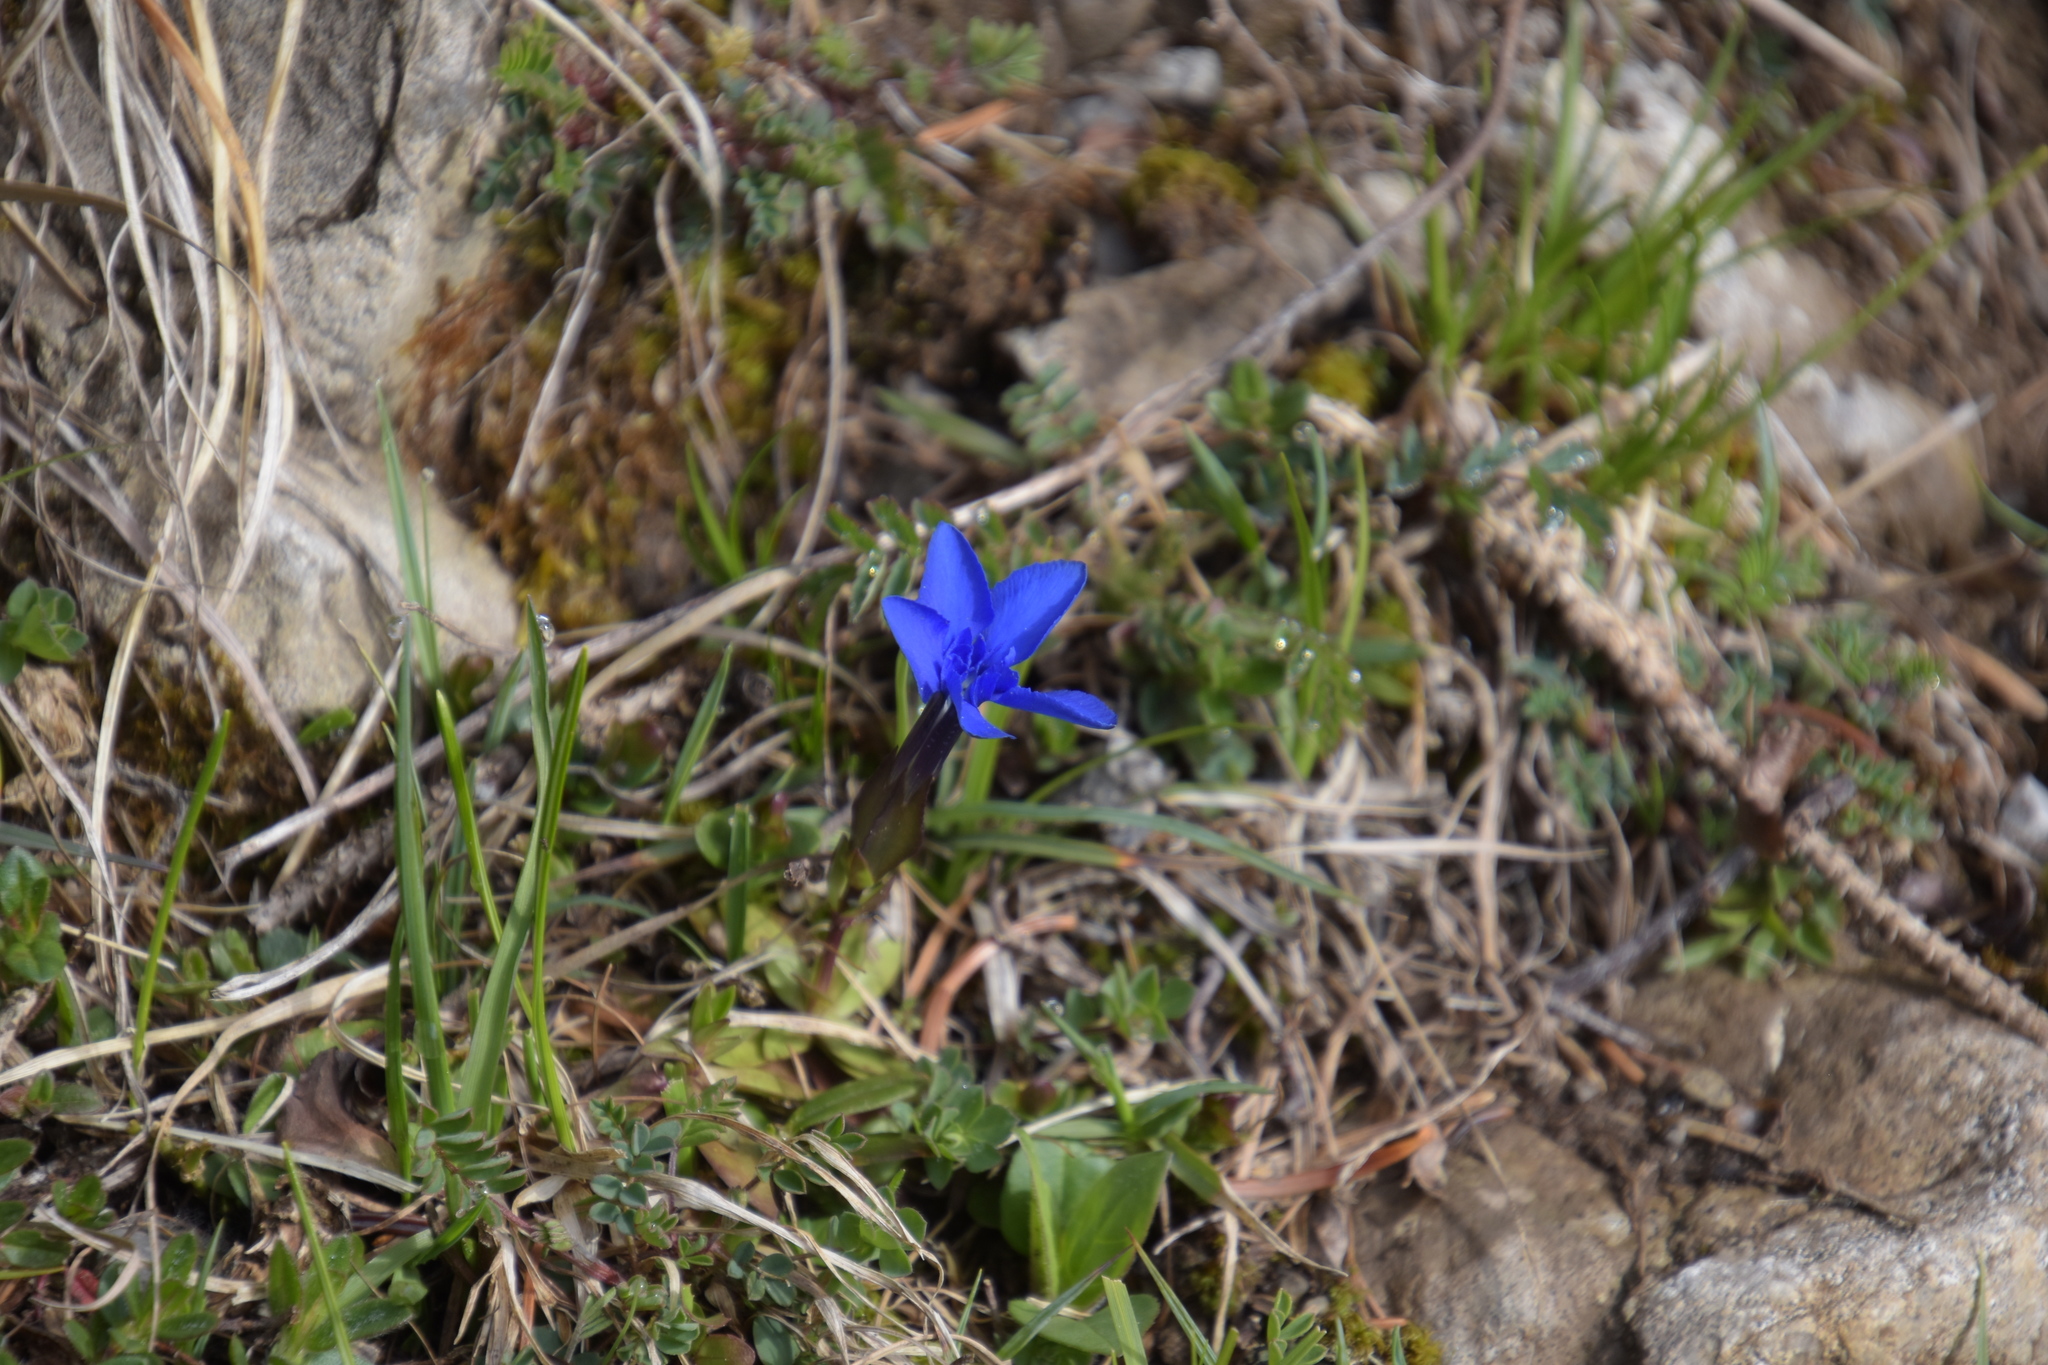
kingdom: Plantae
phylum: Tracheophyta
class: Magnoliopsida
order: Gentianales
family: Gentianaceae
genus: Gentiana
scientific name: Gentiana verna
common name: Spring gentian
